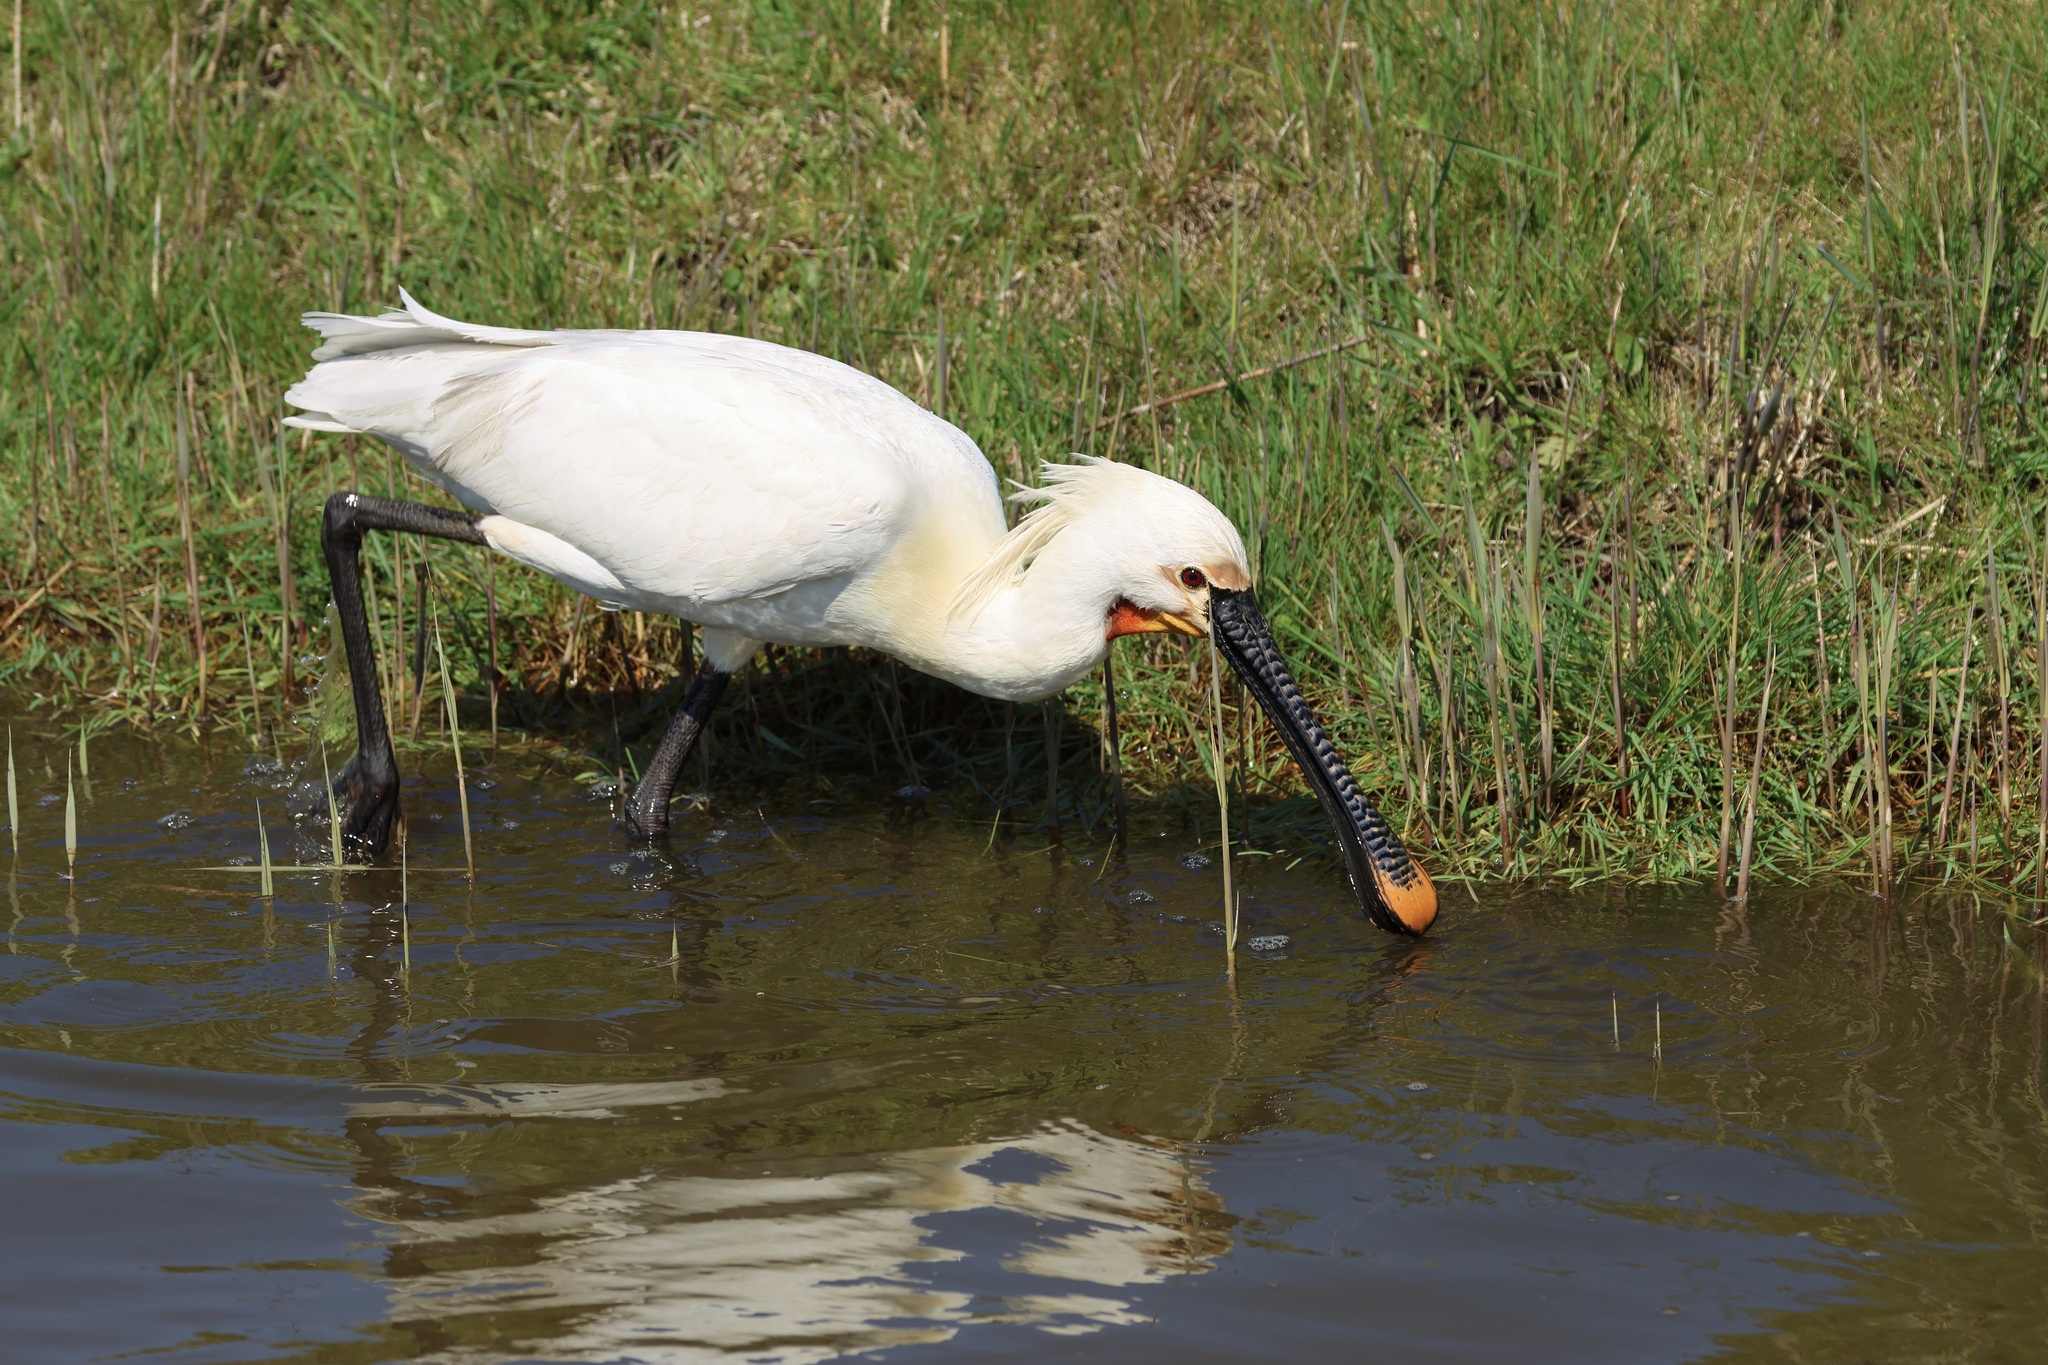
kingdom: Animalia
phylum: Chordata
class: Aves
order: Pelecaniformes
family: Threskiornithidae
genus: Platalea
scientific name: Platalea leucorodia
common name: Eurasian spoonbill
